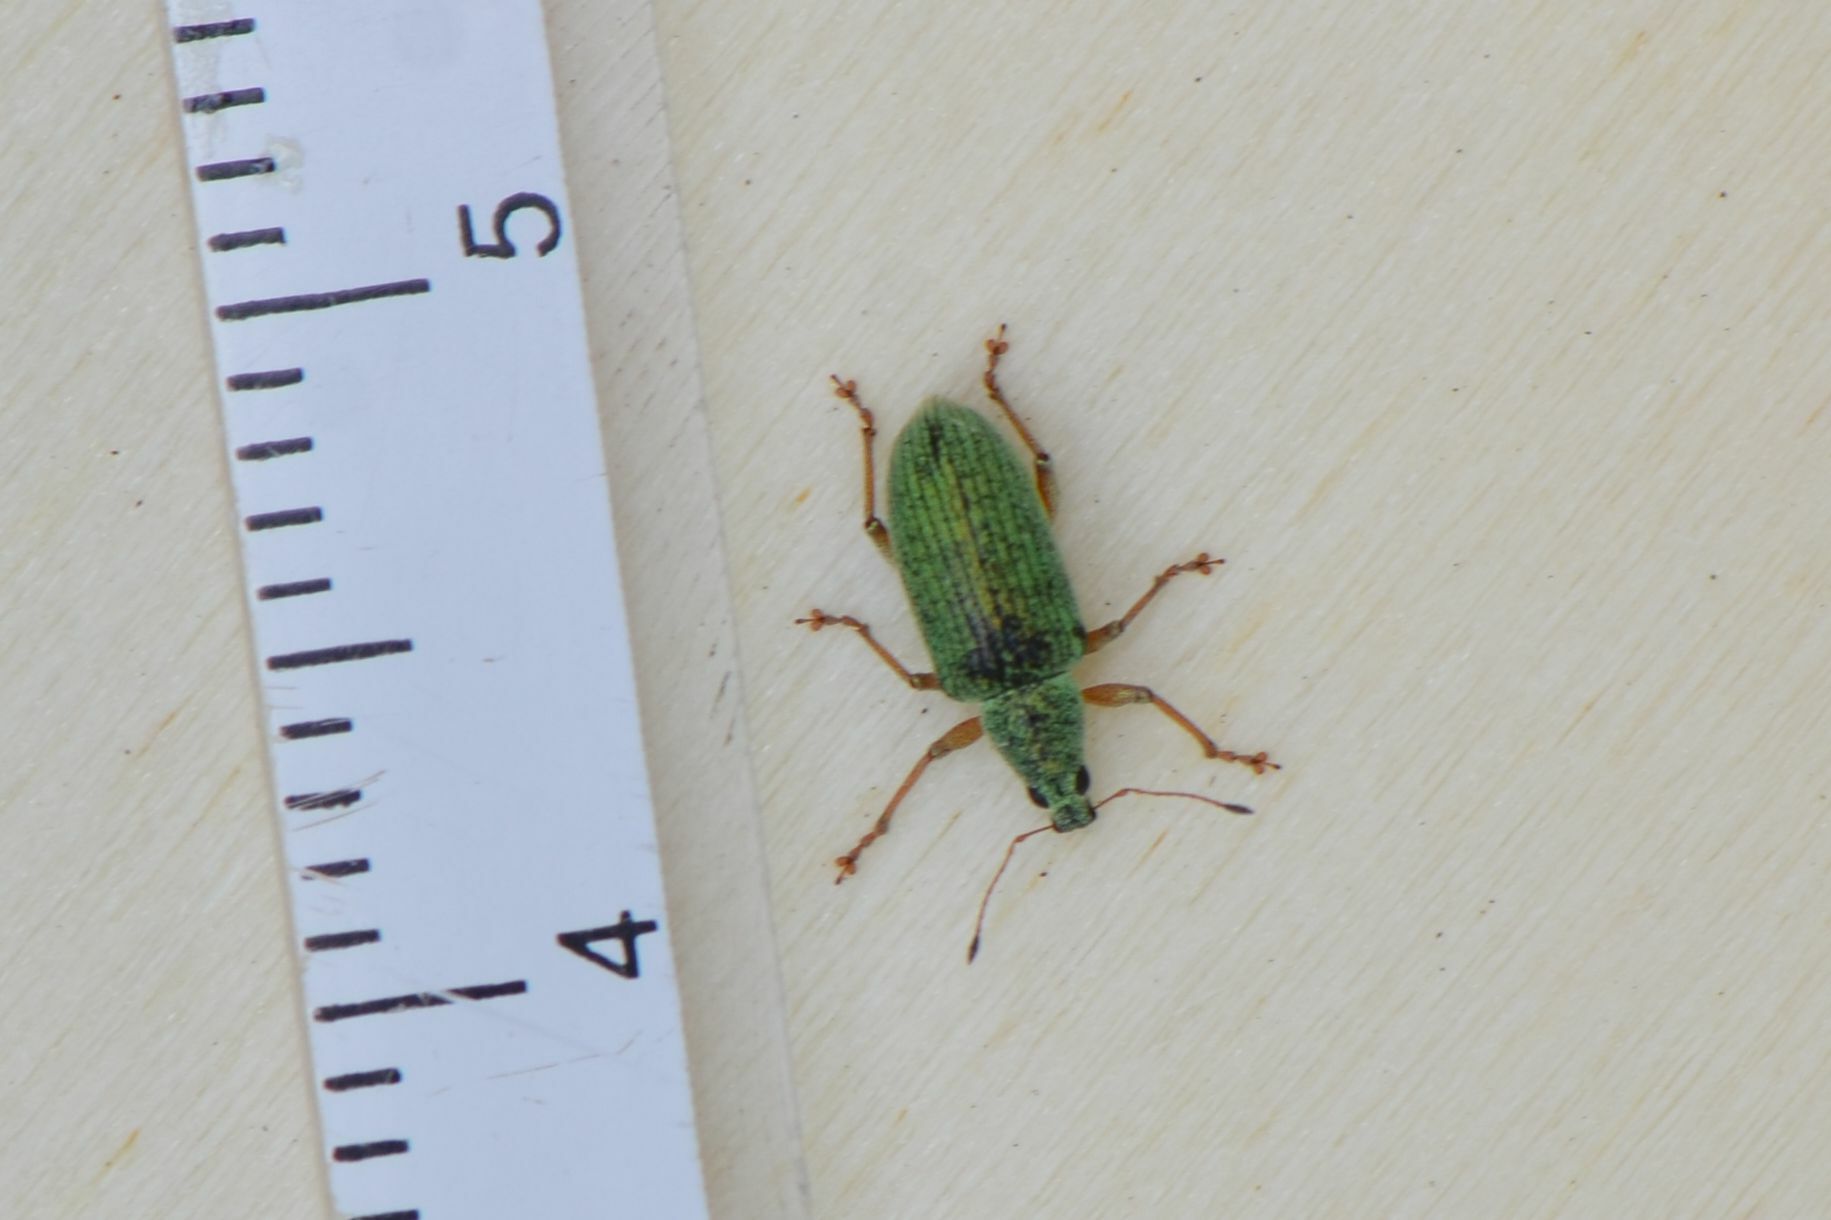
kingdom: Animalia
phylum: Arthropoda
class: Insecta
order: Coleoptera
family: Curculionidae
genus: Polydrusus
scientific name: Polydrusus formosus
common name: Weevil
